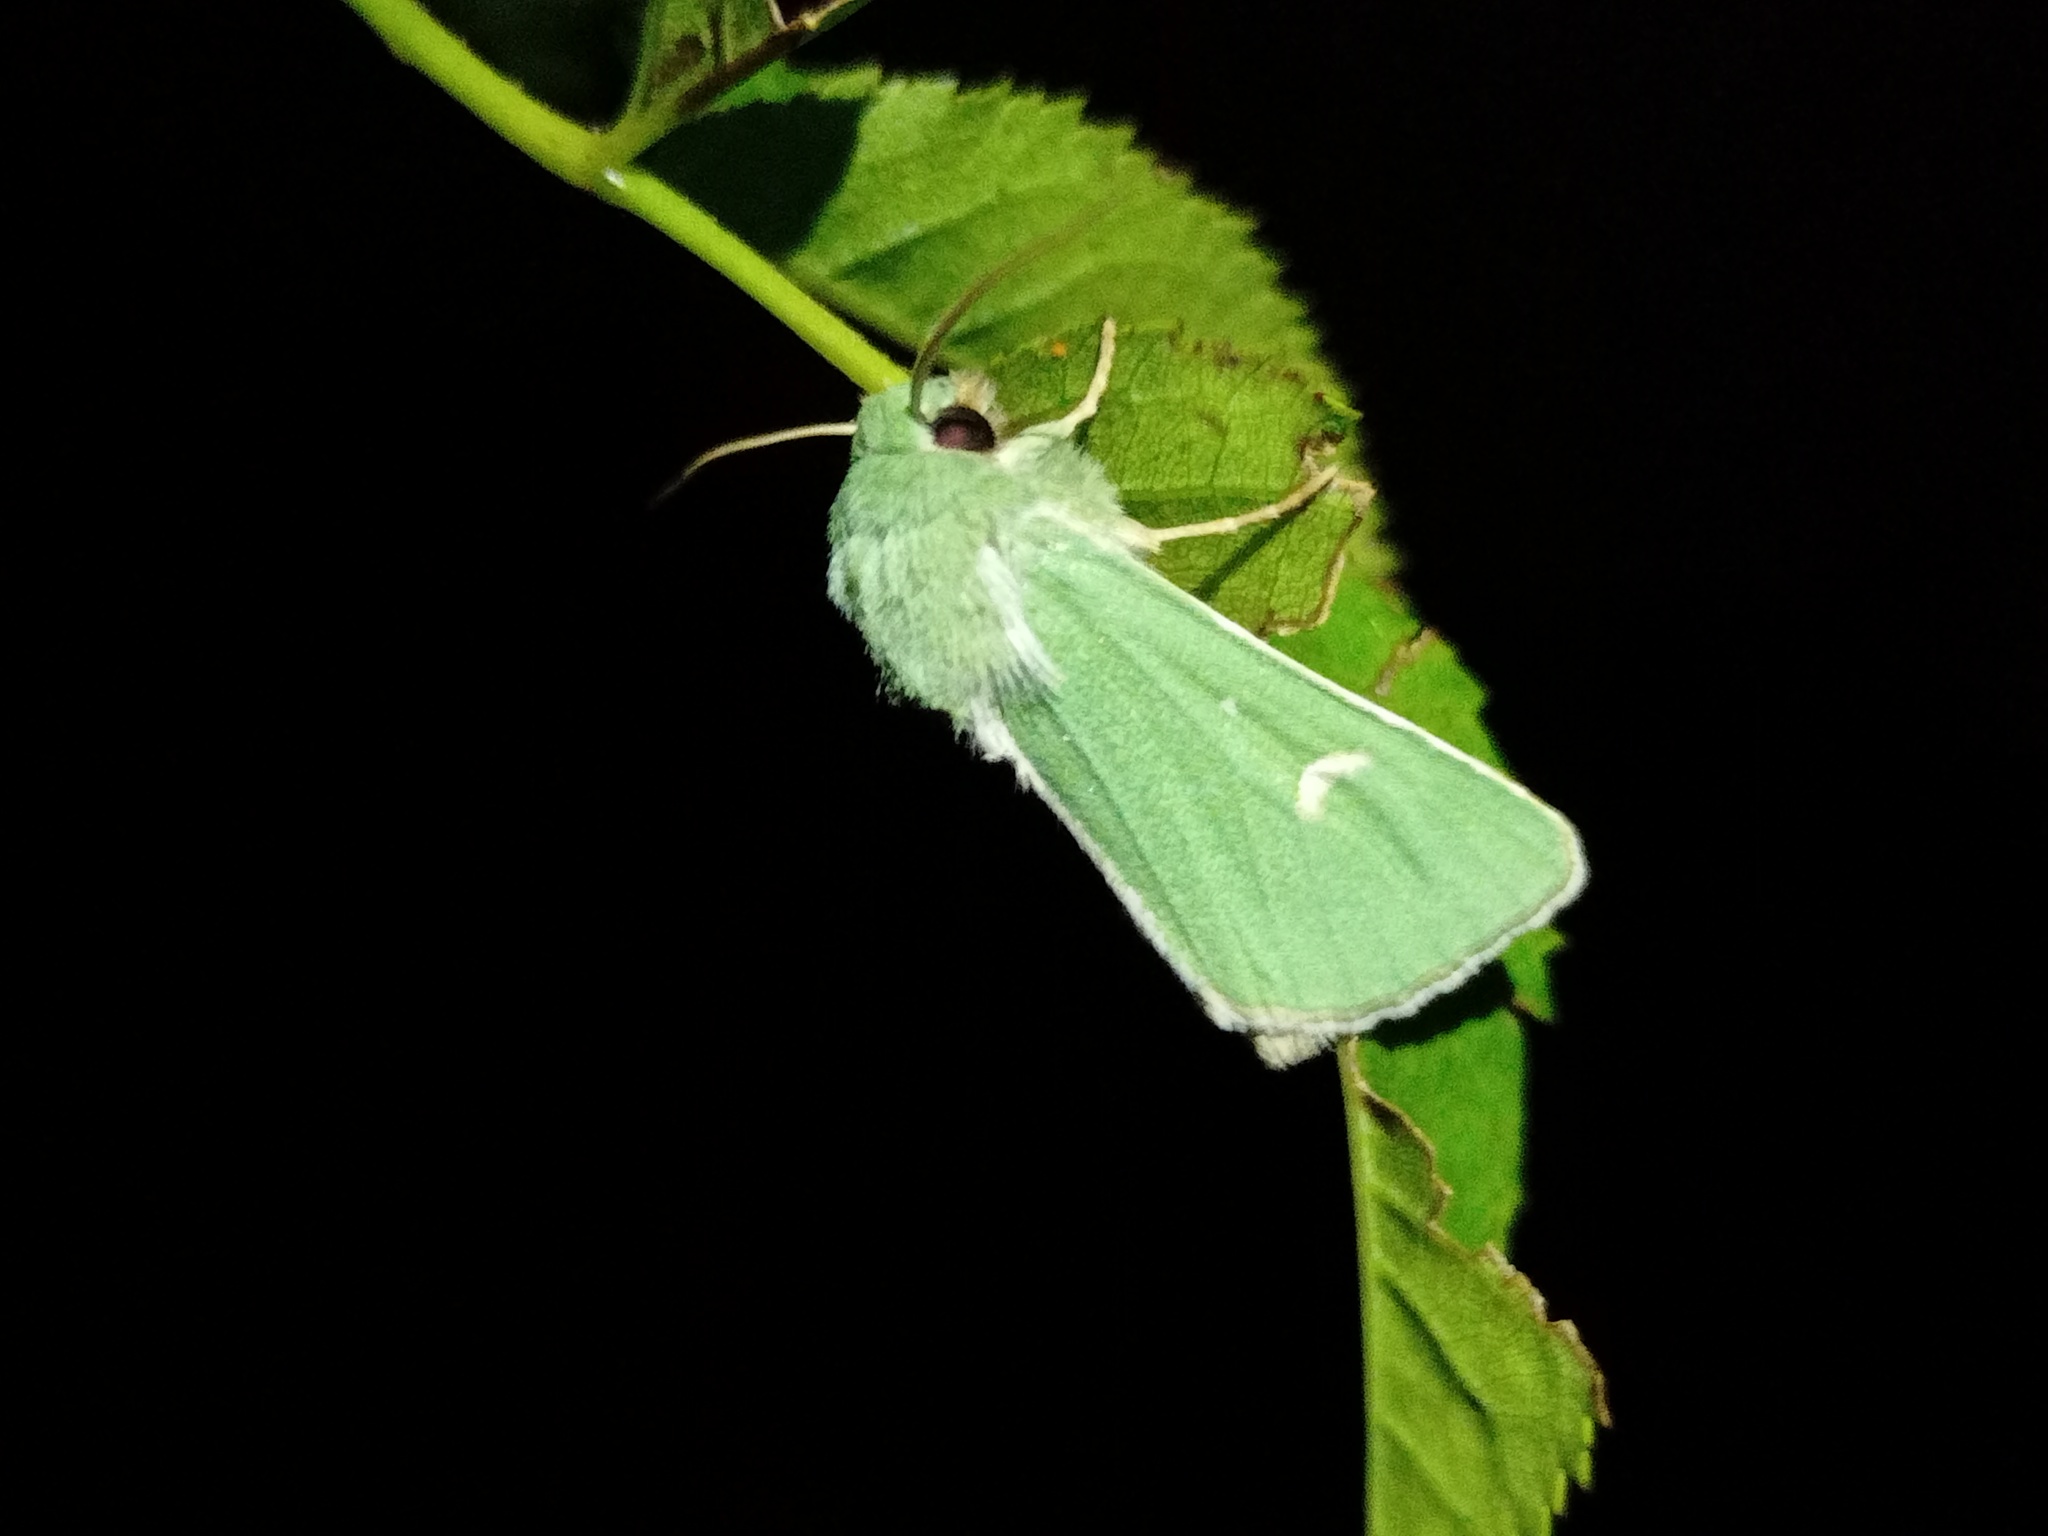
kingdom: Animalia
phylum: Arthropoda
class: Insecta
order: Lepidoptera
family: Noctuidae
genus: Calamia
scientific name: Calamia tridens
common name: Burren green
